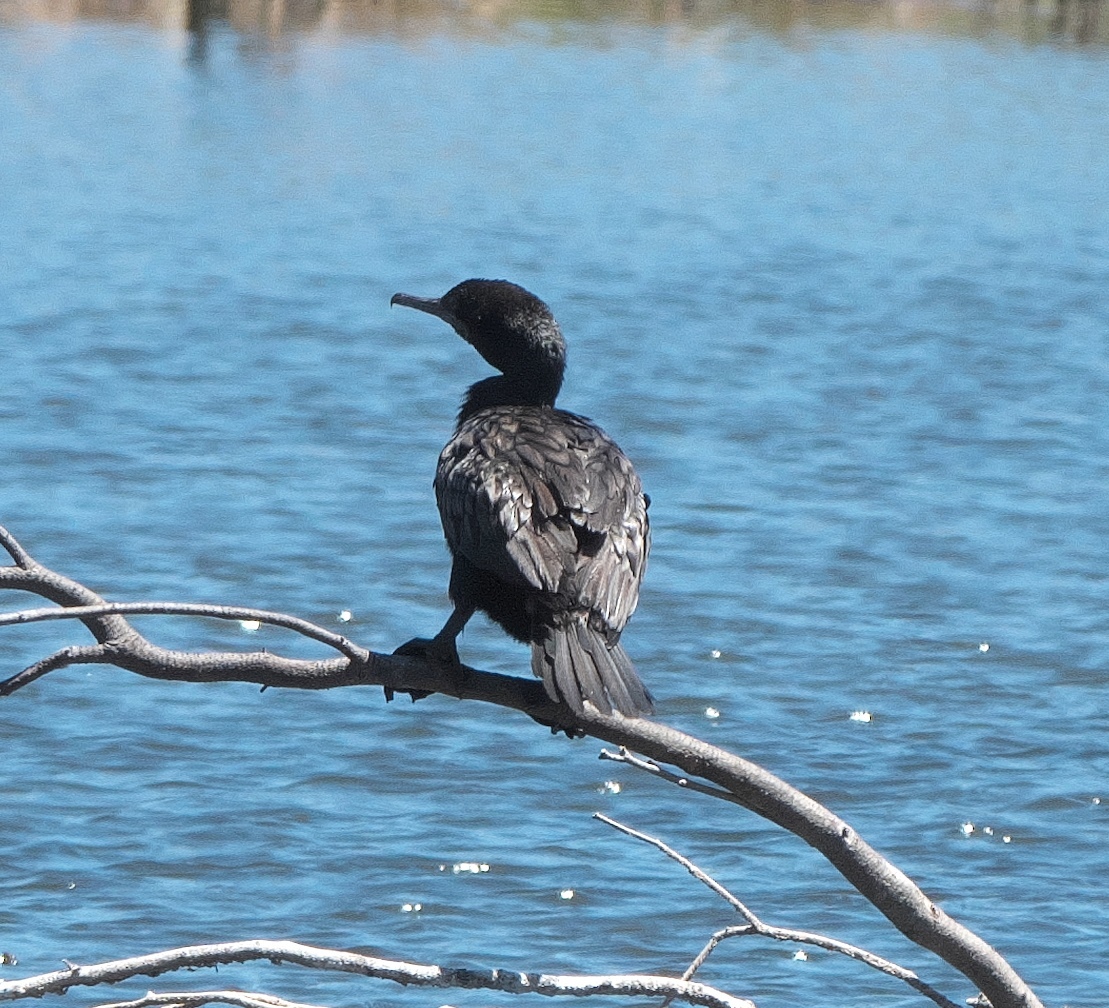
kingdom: Animalia
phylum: Chordata
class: Aves
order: Suliformes
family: Phalacrocoracidae
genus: Phalacrocorax
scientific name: Phalacrocorax sulcirostris
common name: Little black cormorant
